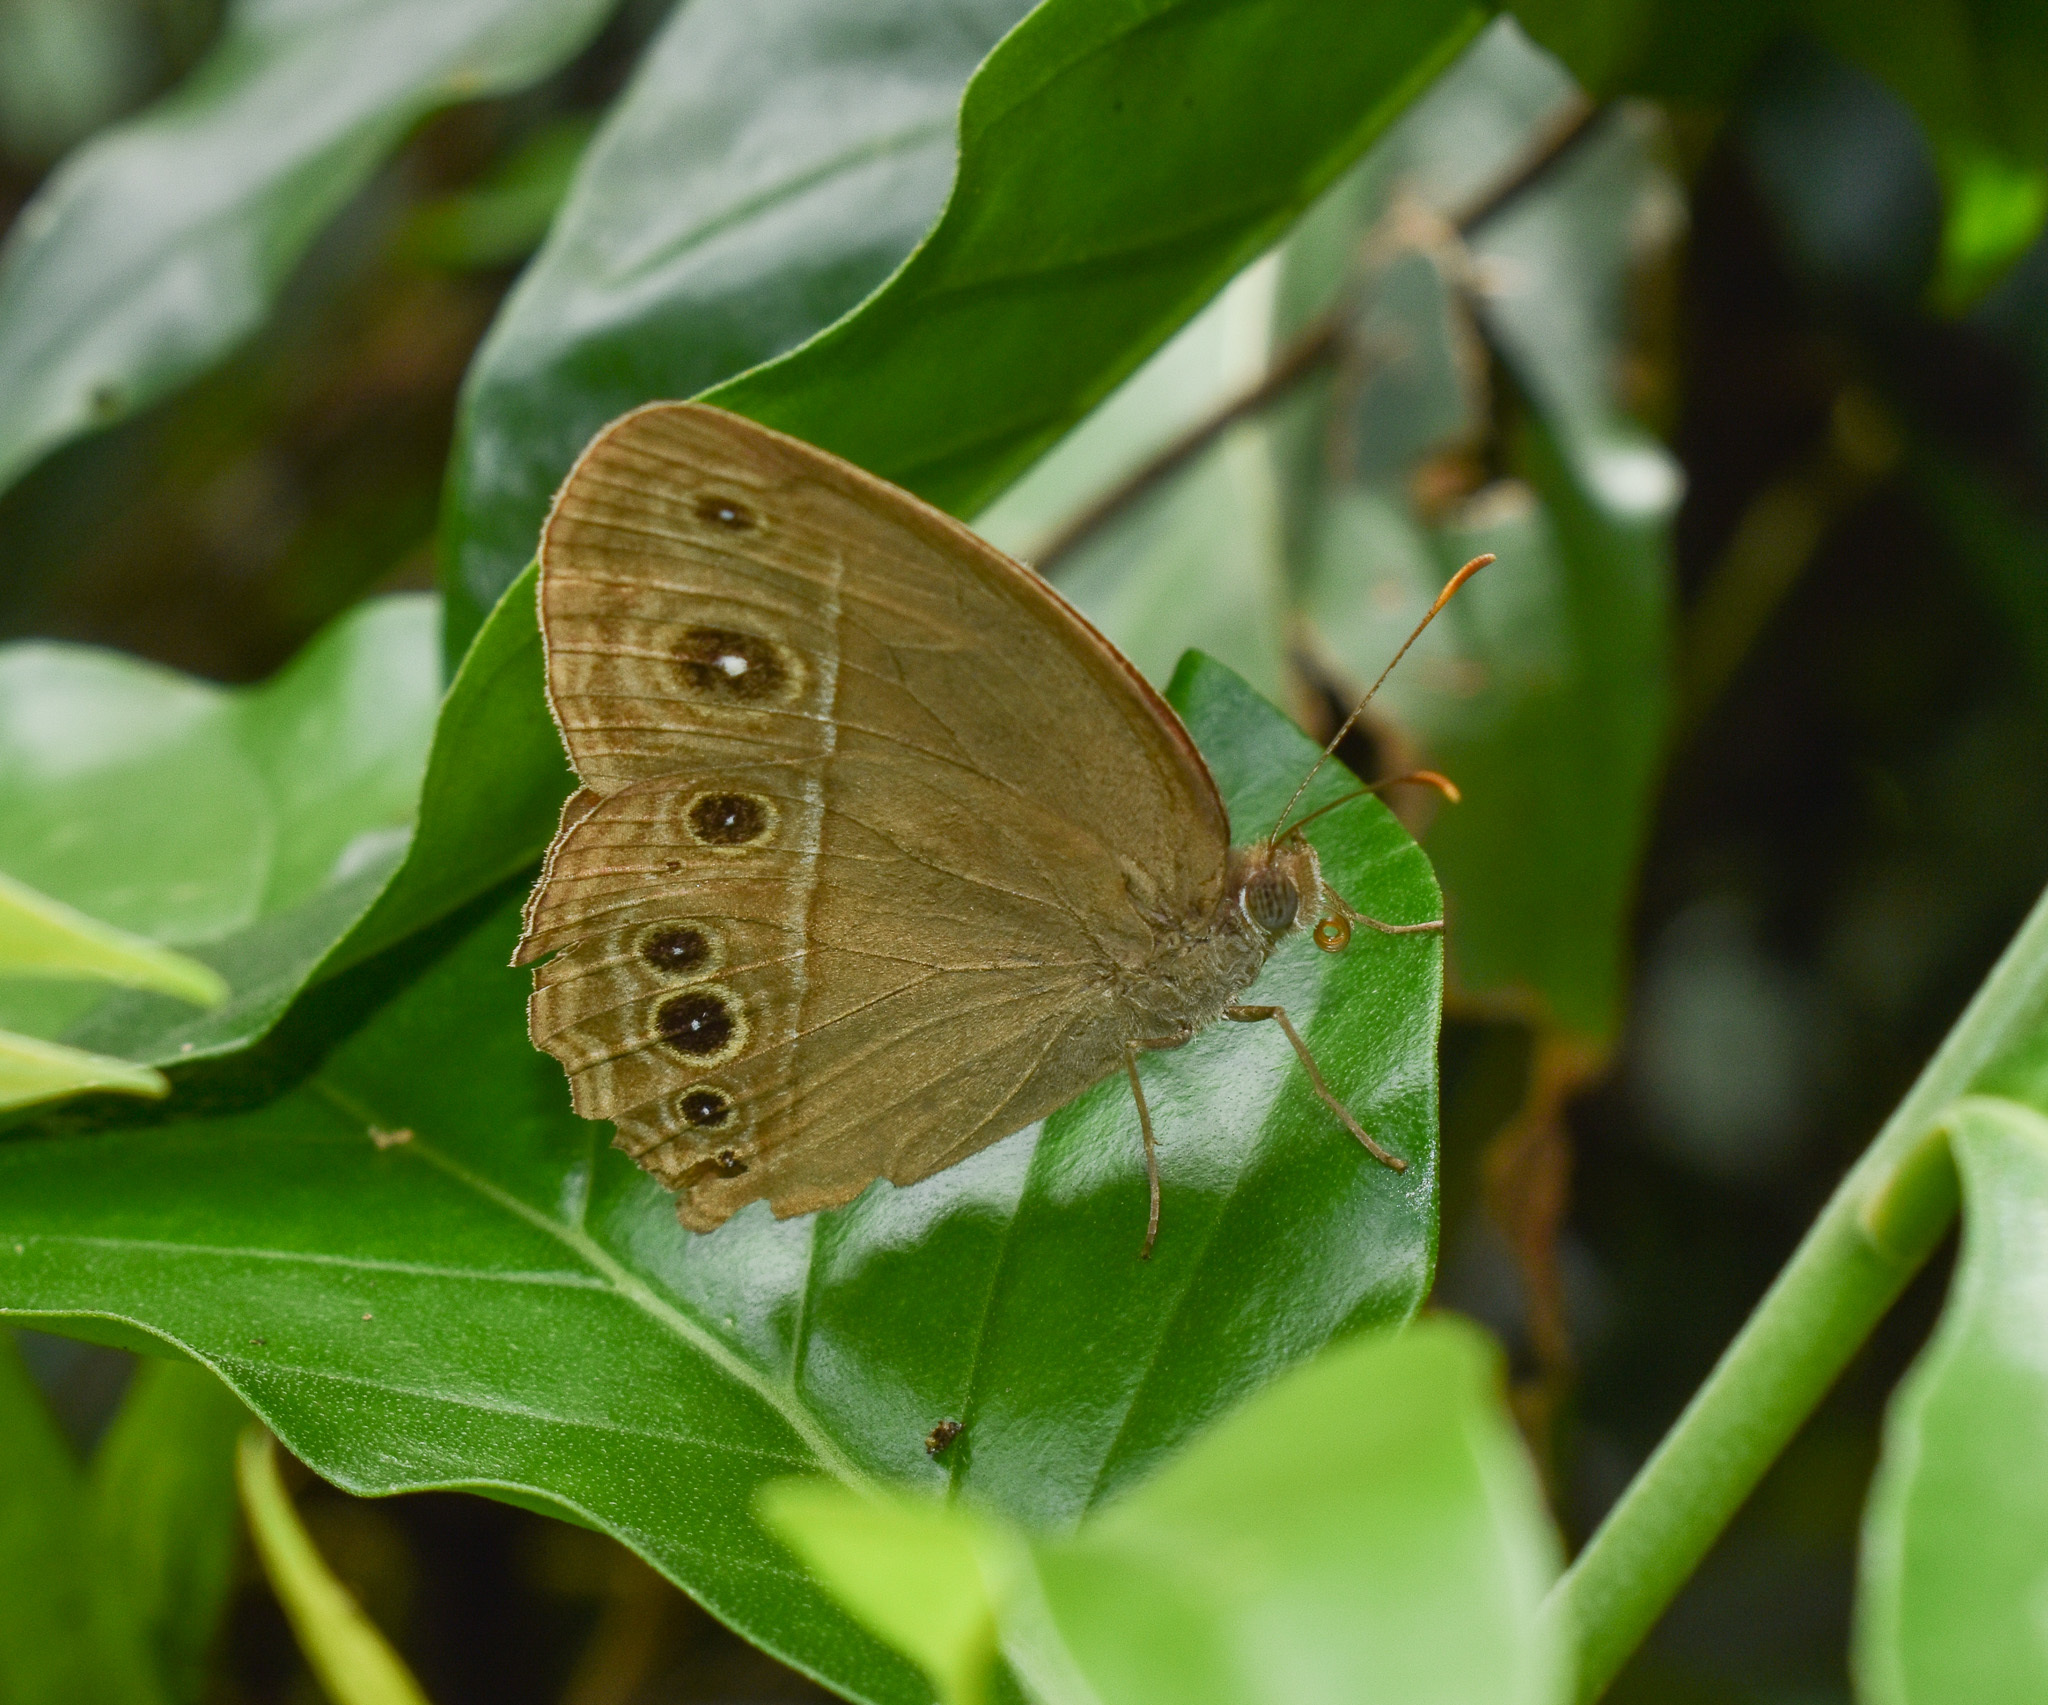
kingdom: Animalia
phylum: Arthropoda
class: Insecta
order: Lepidoptera
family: Nymphalidae
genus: Mycalesis
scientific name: Mycalesis mineus
